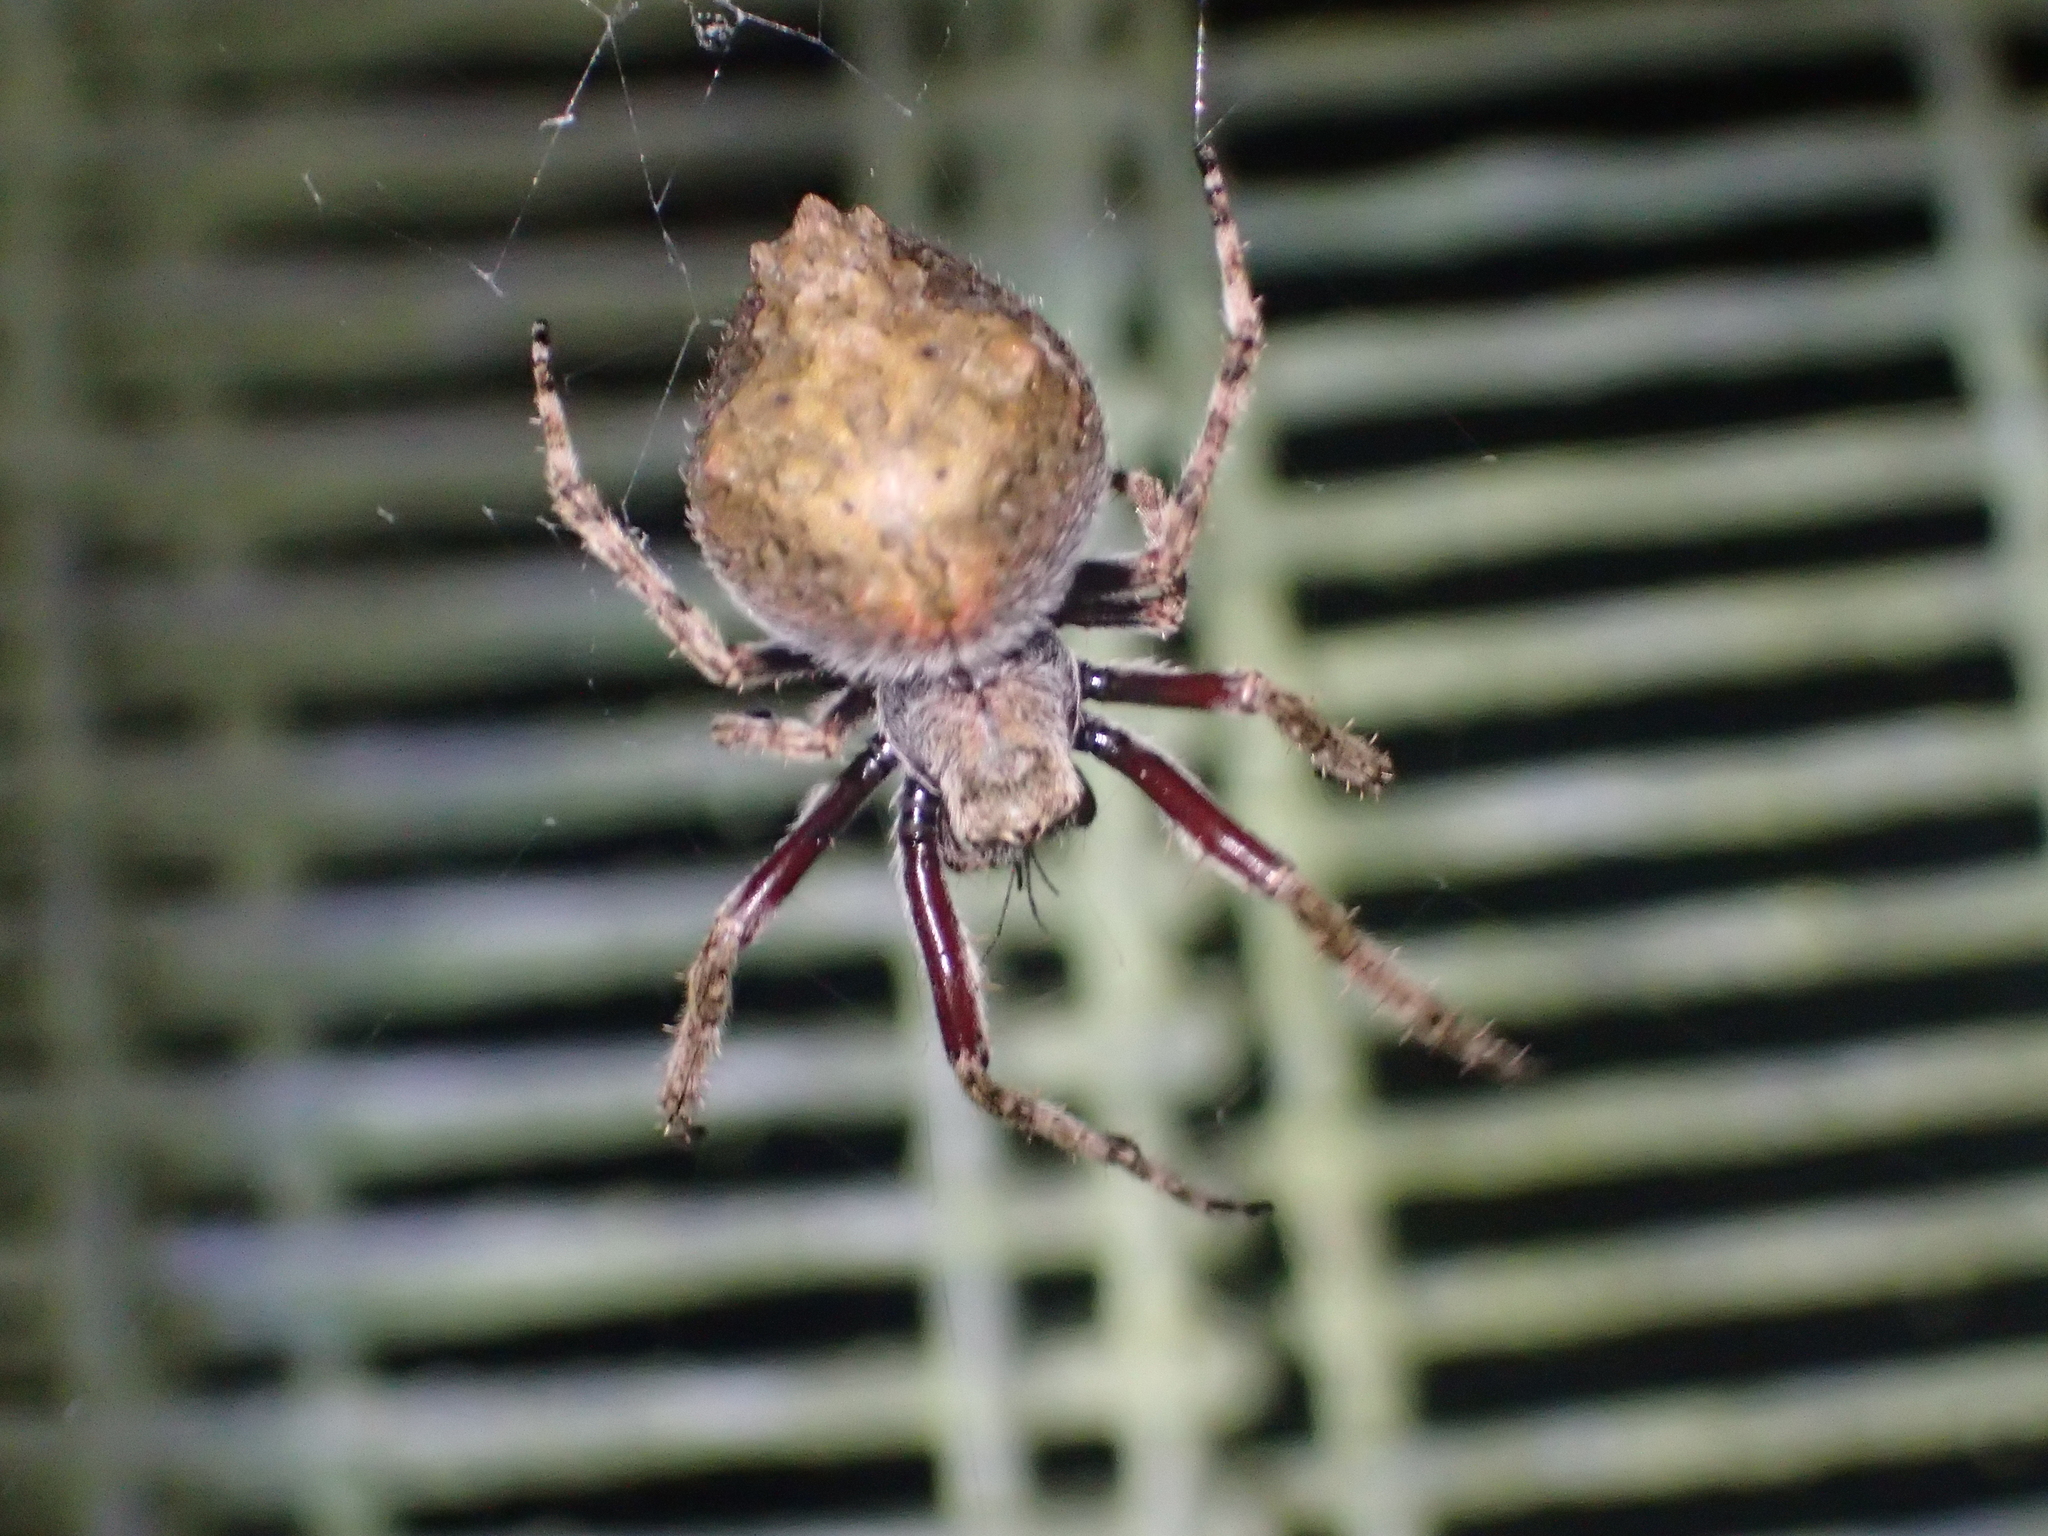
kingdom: Animalia
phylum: Arthropoda
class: Arachnida
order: Araneae
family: Araneidae
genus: Eriophora
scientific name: Eriophora pustulosa
